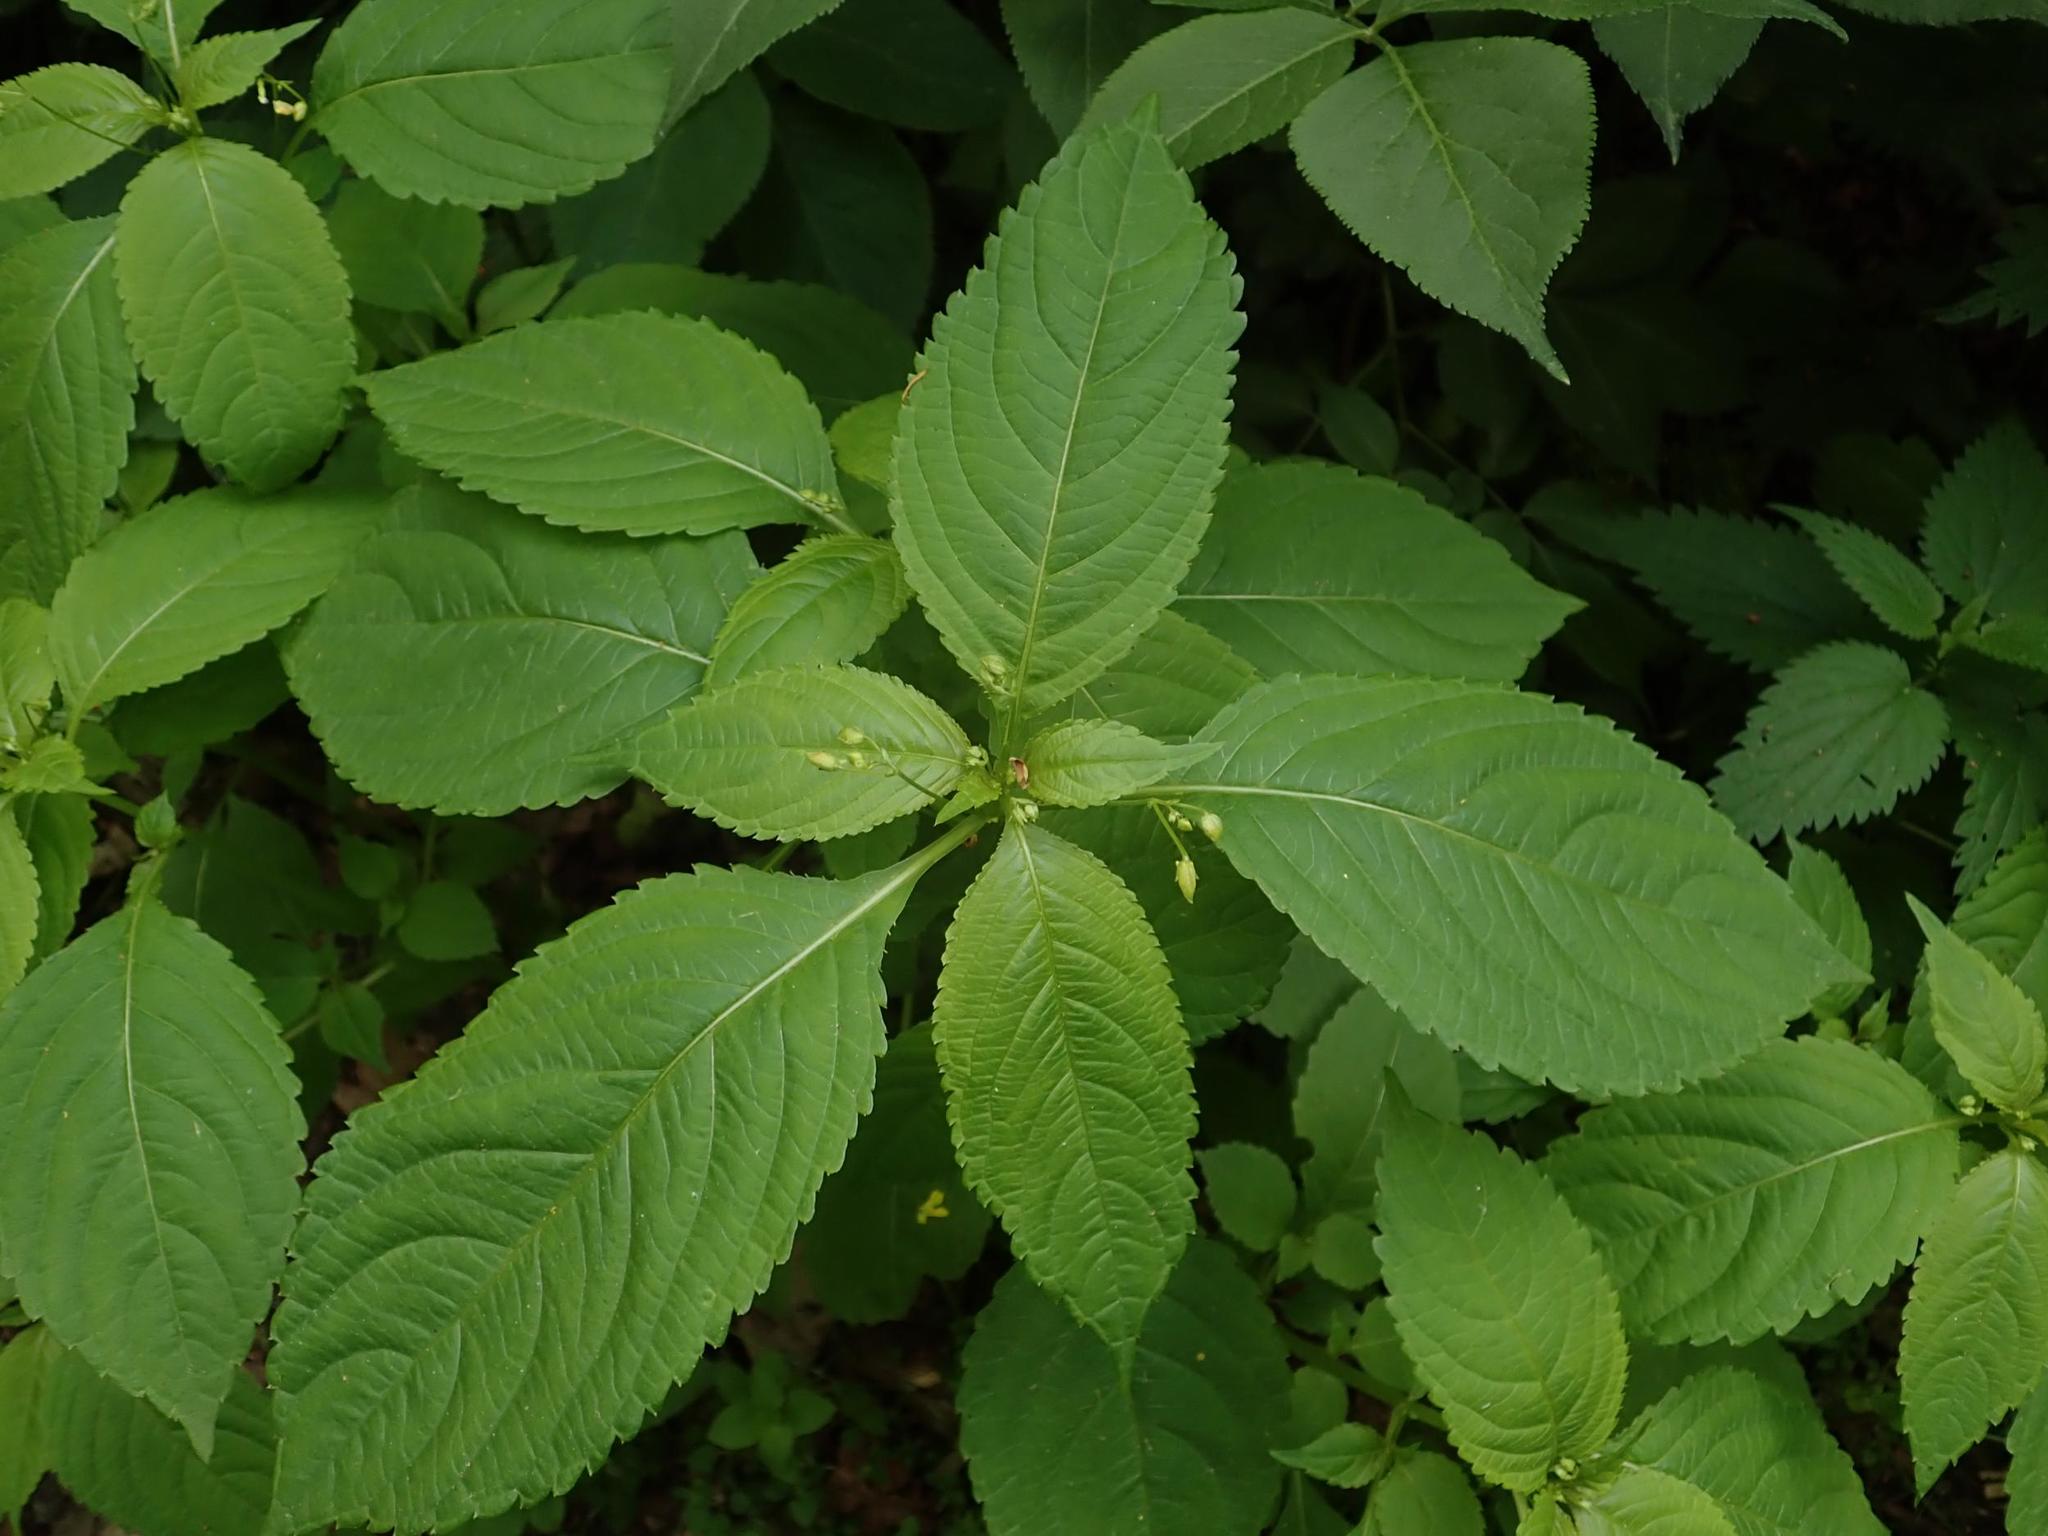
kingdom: Plantae
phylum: Tracheophyta
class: Magnoliopsida
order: Ericales
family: Balsaminaceae
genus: Impatiens
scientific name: Impatiens parviflora
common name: Small balsam
